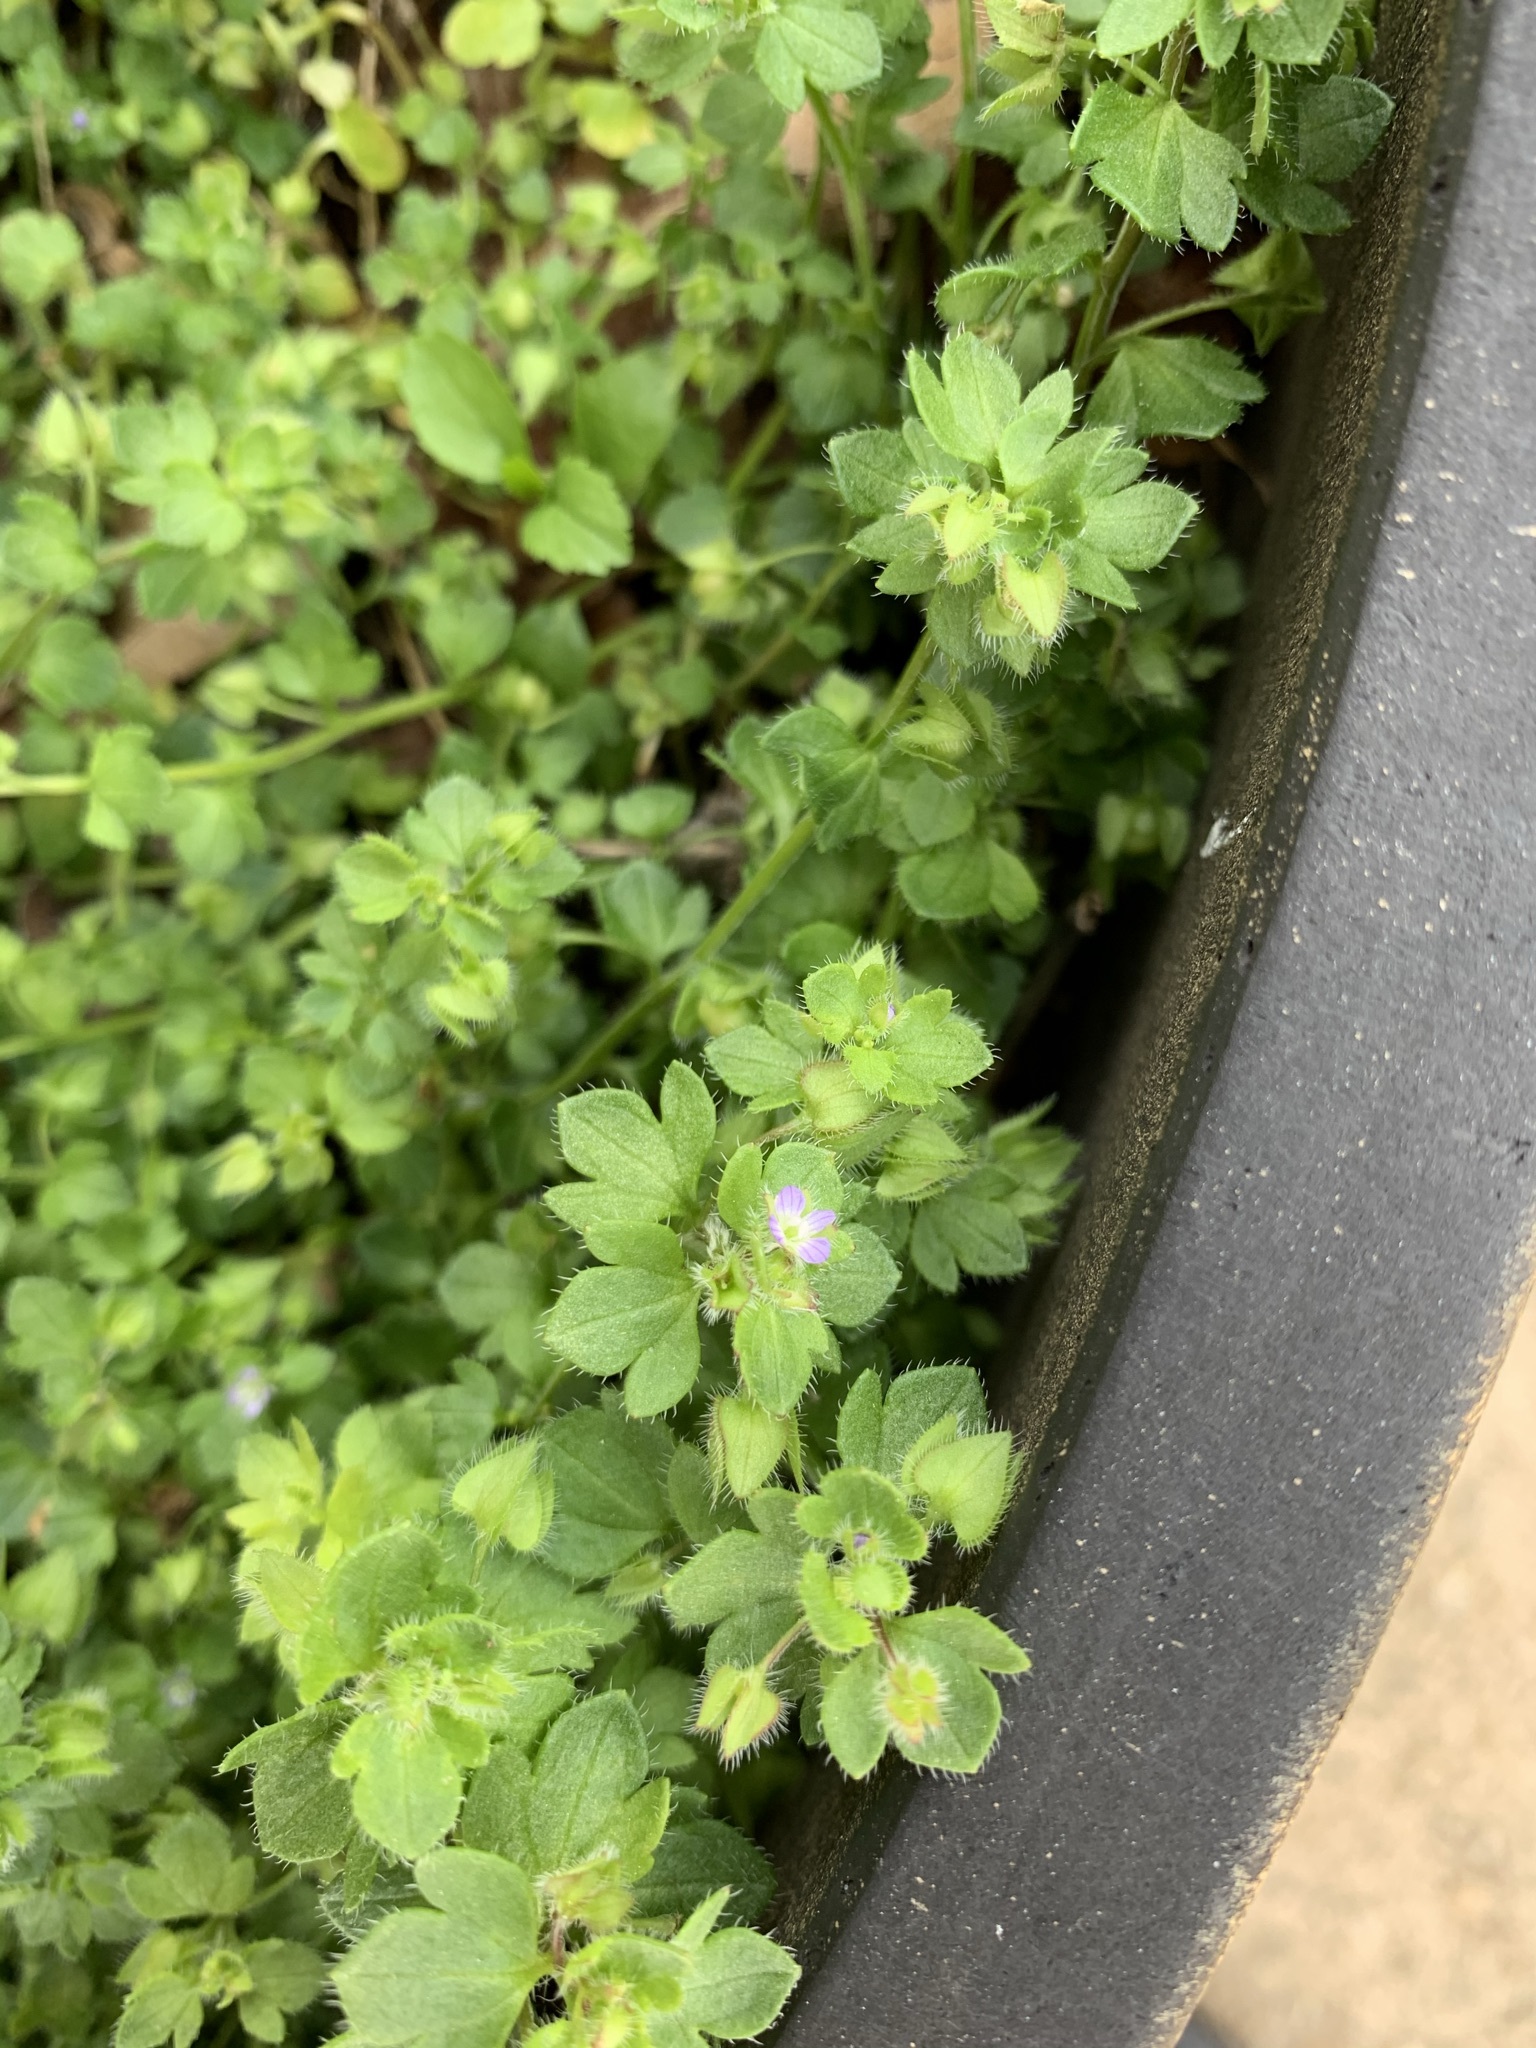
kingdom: Plantae
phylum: Tracheophyta
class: Magnoliopsida
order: Lamiales
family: Plantaginaceae
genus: Veronica
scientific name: Veronica hederifolia
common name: Ivy-leaved speedwell
